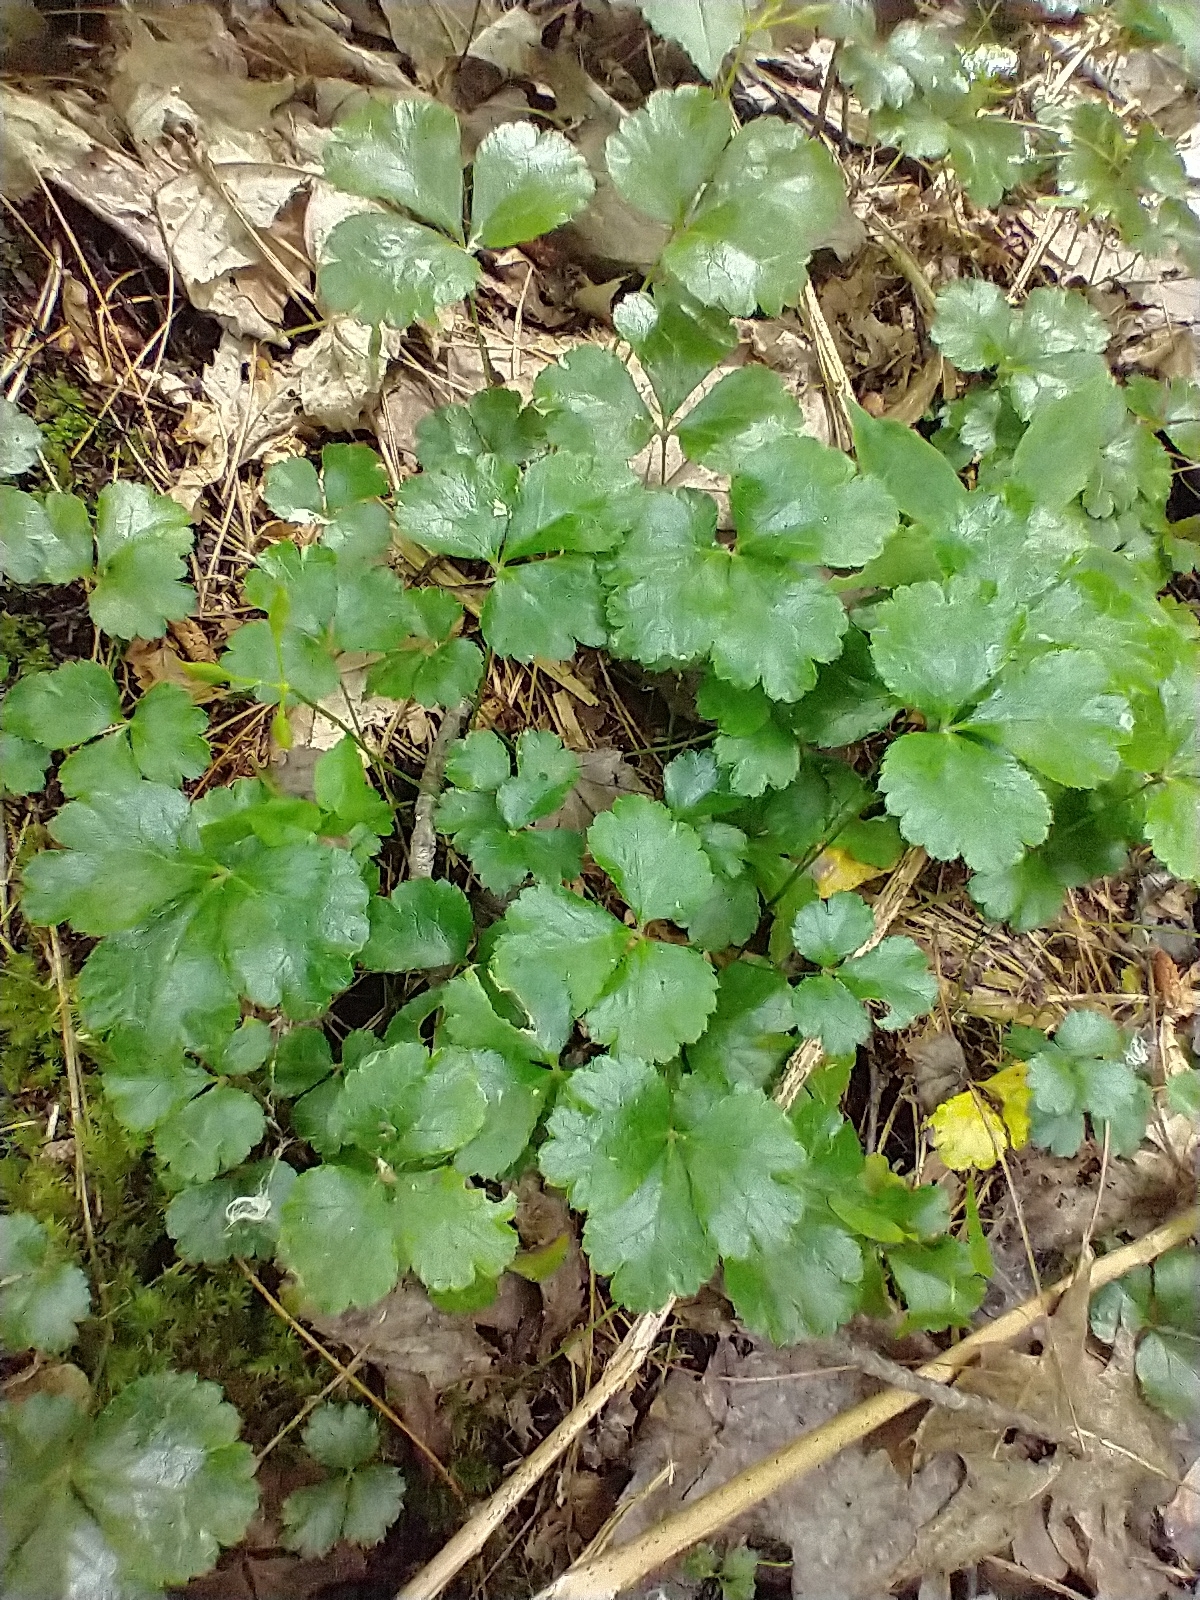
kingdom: Plantae
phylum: Tracheophyta
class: Magnoliopsida
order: Ranunculales
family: Ranunculaceae
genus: Coptis
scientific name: Coptis trifolia
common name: Canker-root
